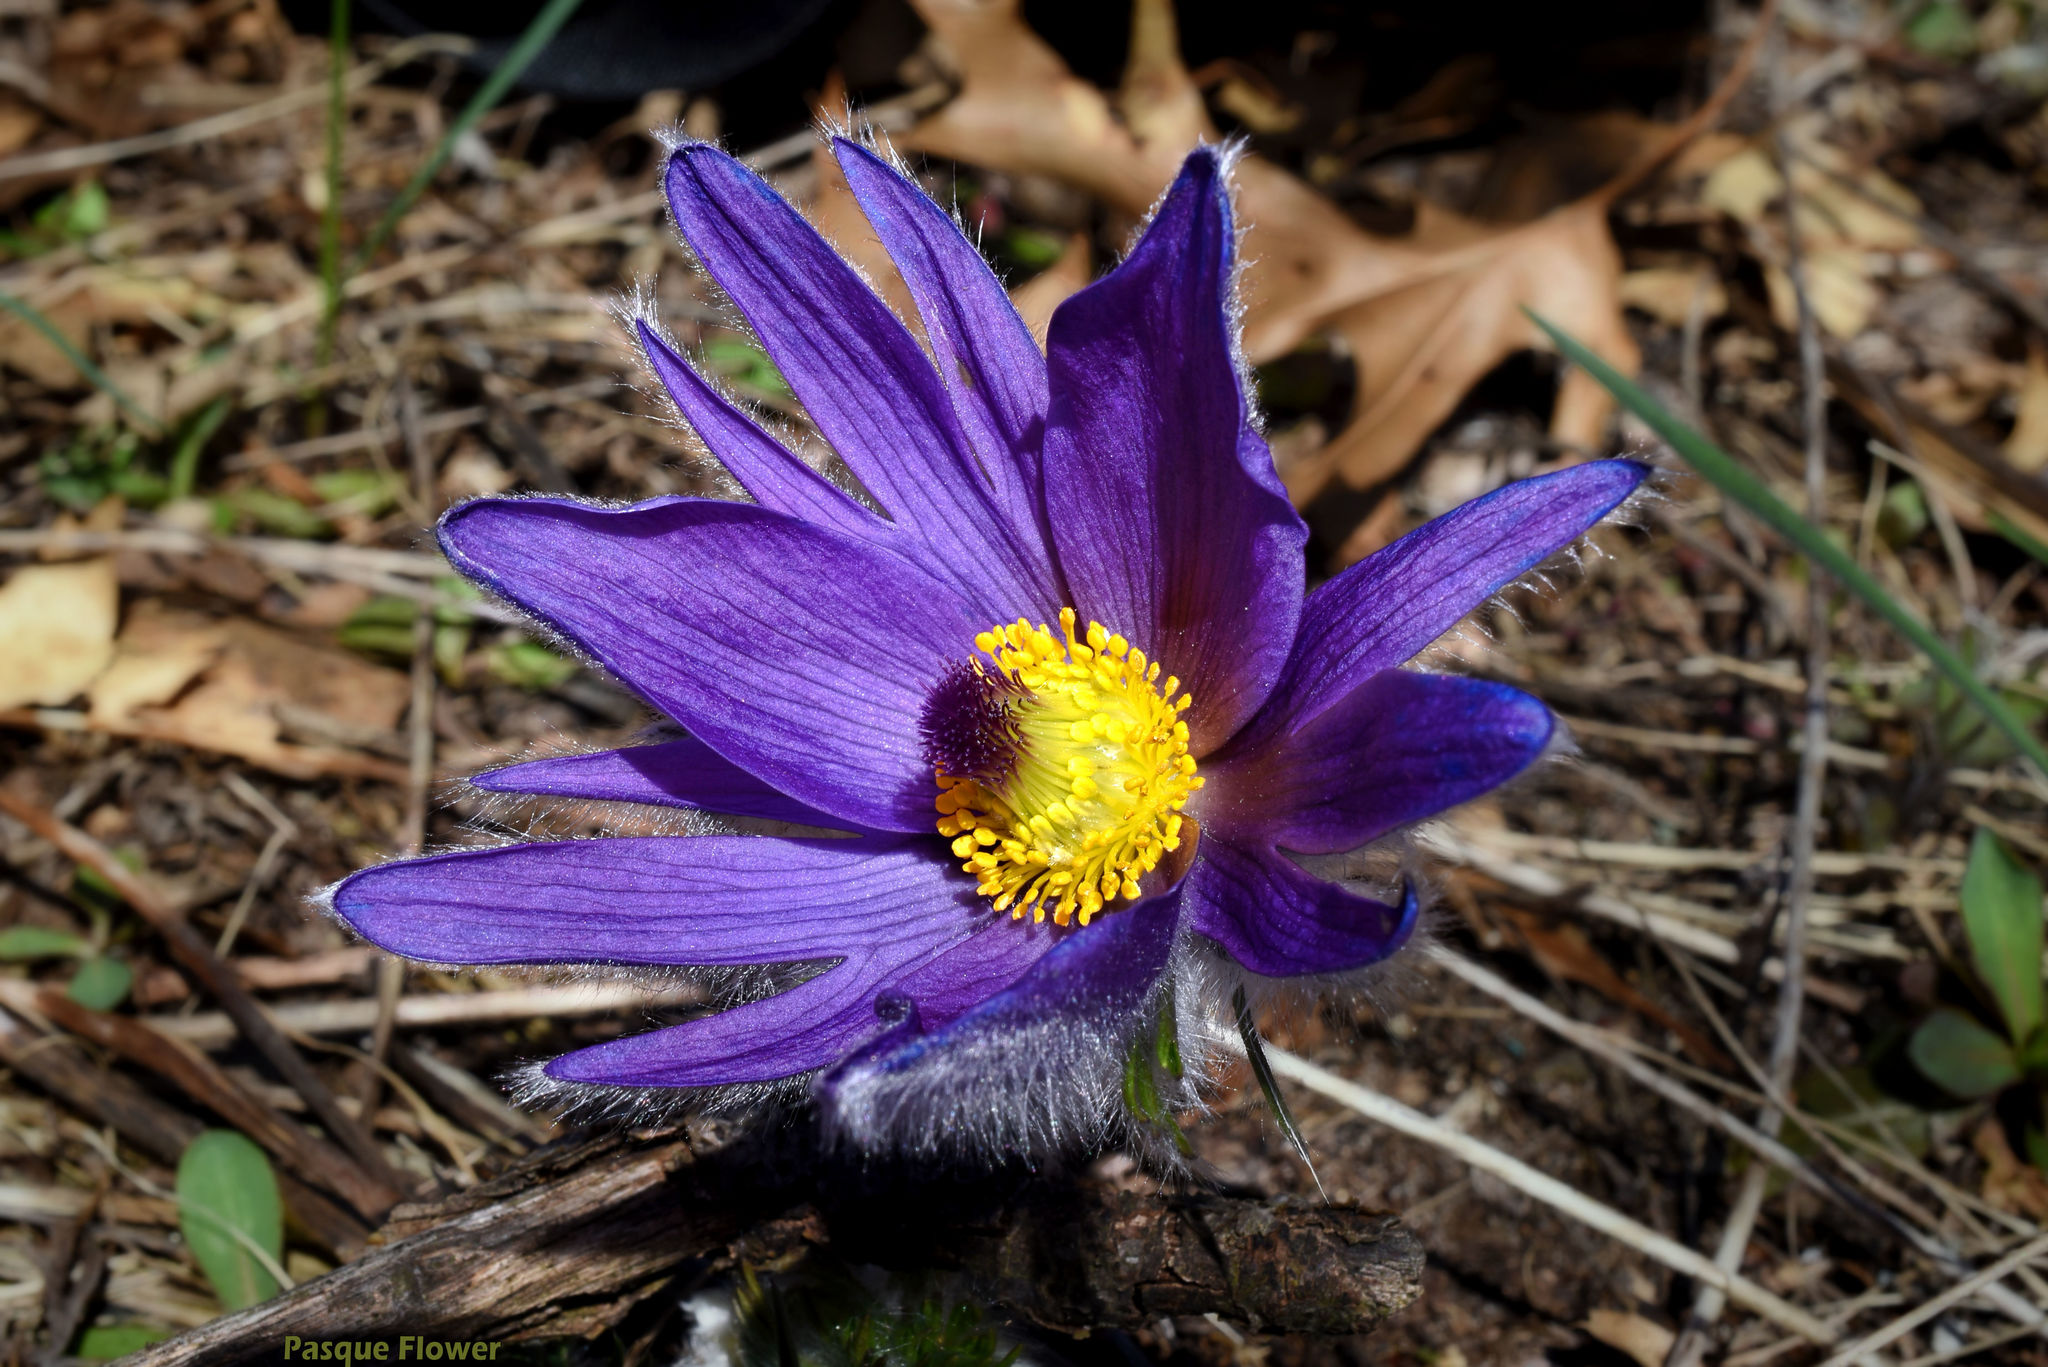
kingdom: Plantae
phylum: Tracheophyta
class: Magnoliopsida
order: Ranunculales
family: Ranunculaceae
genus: Pulsatilla
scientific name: Pulsatilla nuttalliana
